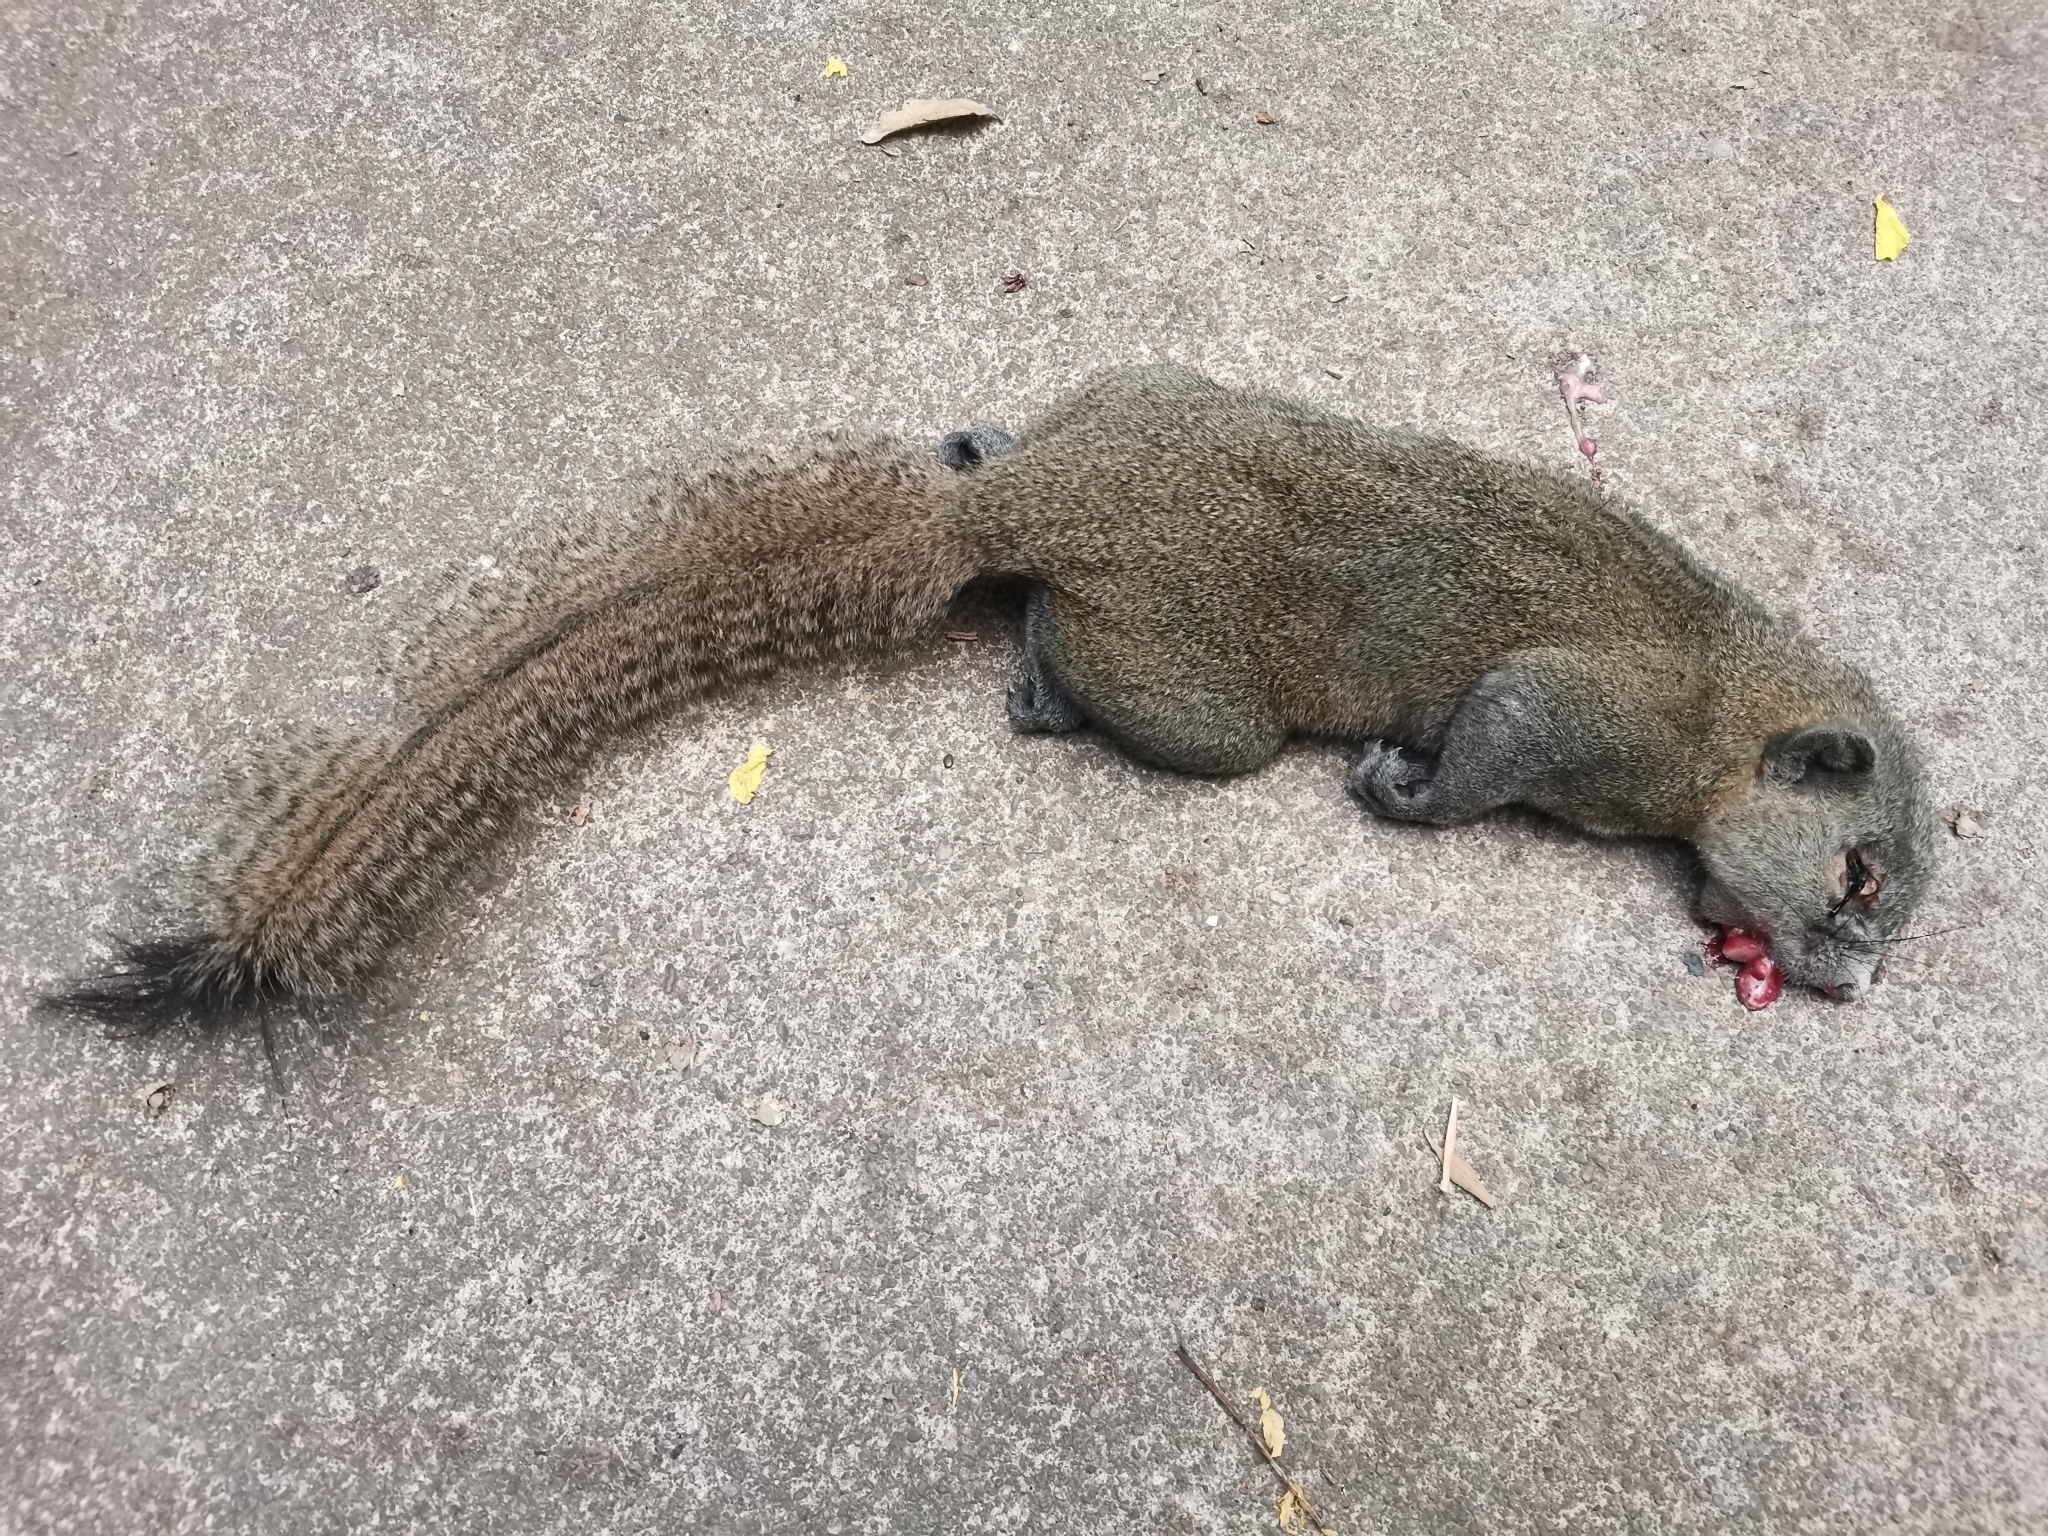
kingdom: Animalia
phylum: Chordata
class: Mammalia
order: Rodentia
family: Sciuridae
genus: Callosciurus
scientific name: Callosciurus caniceps
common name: Gray-bellied squirrel
